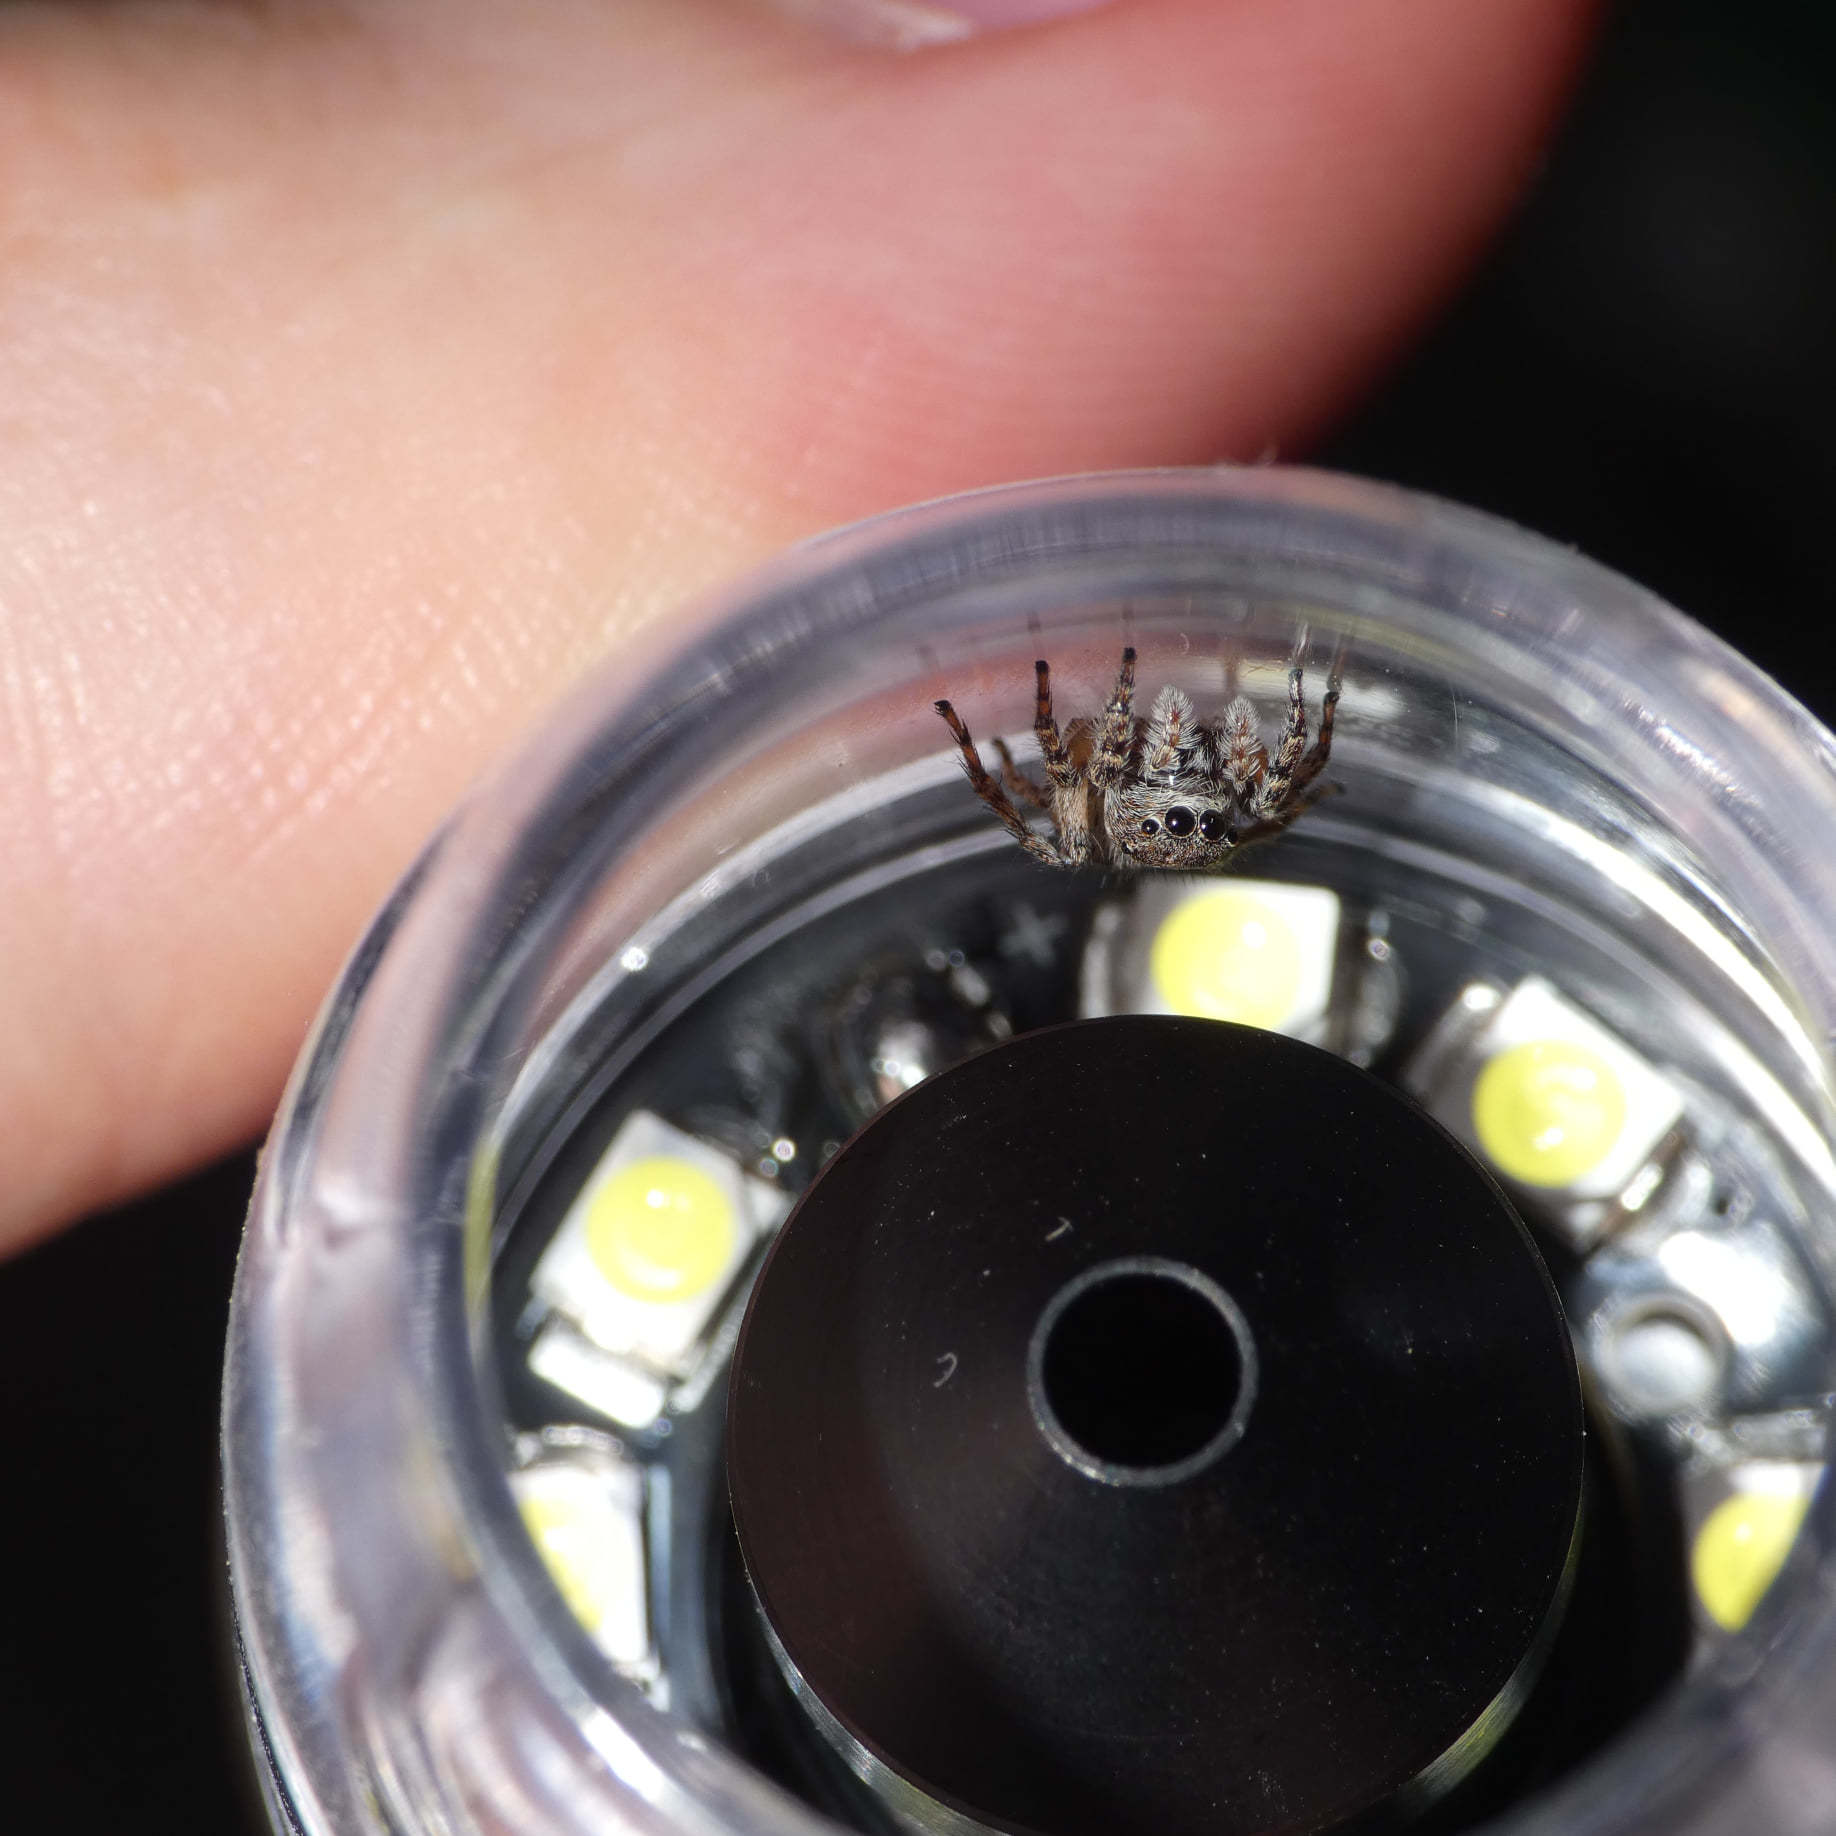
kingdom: Animalia
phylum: Arthropoda
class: Arachnida
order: Araneae
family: Salticidae
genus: Langelurillus
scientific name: Langelurillus namibicus
